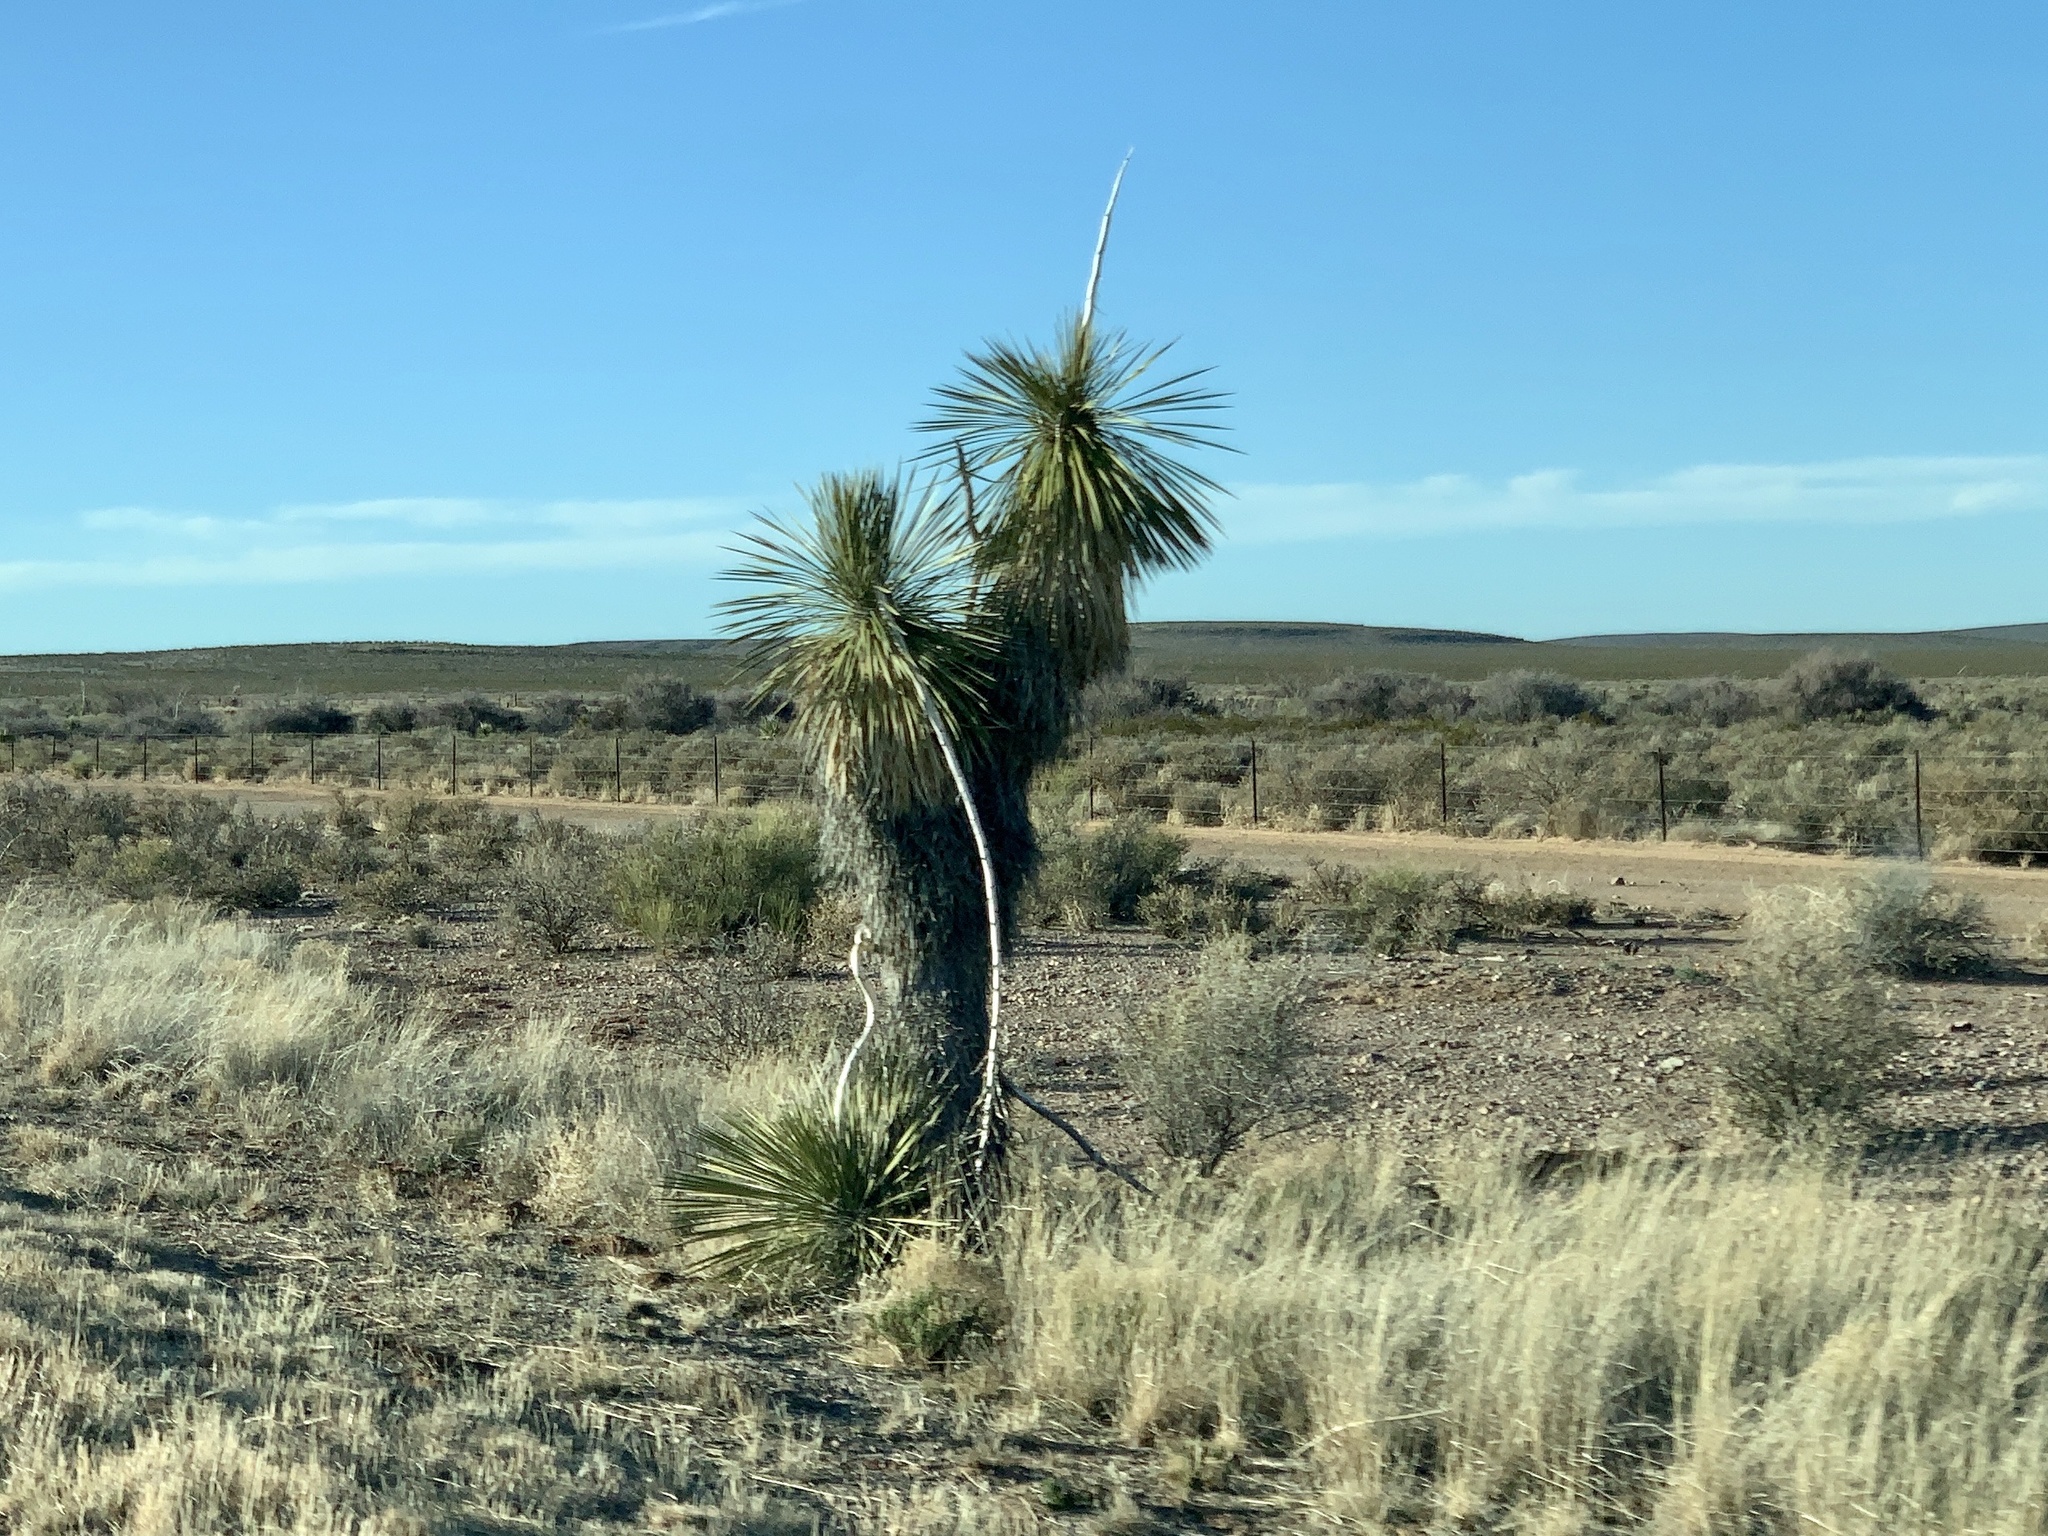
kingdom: Plantae
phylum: Tracheophyta
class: Liliopsida
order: Asparagales
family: Asparagaceae
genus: Yucca
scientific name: Yucca elata
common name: Palmella
